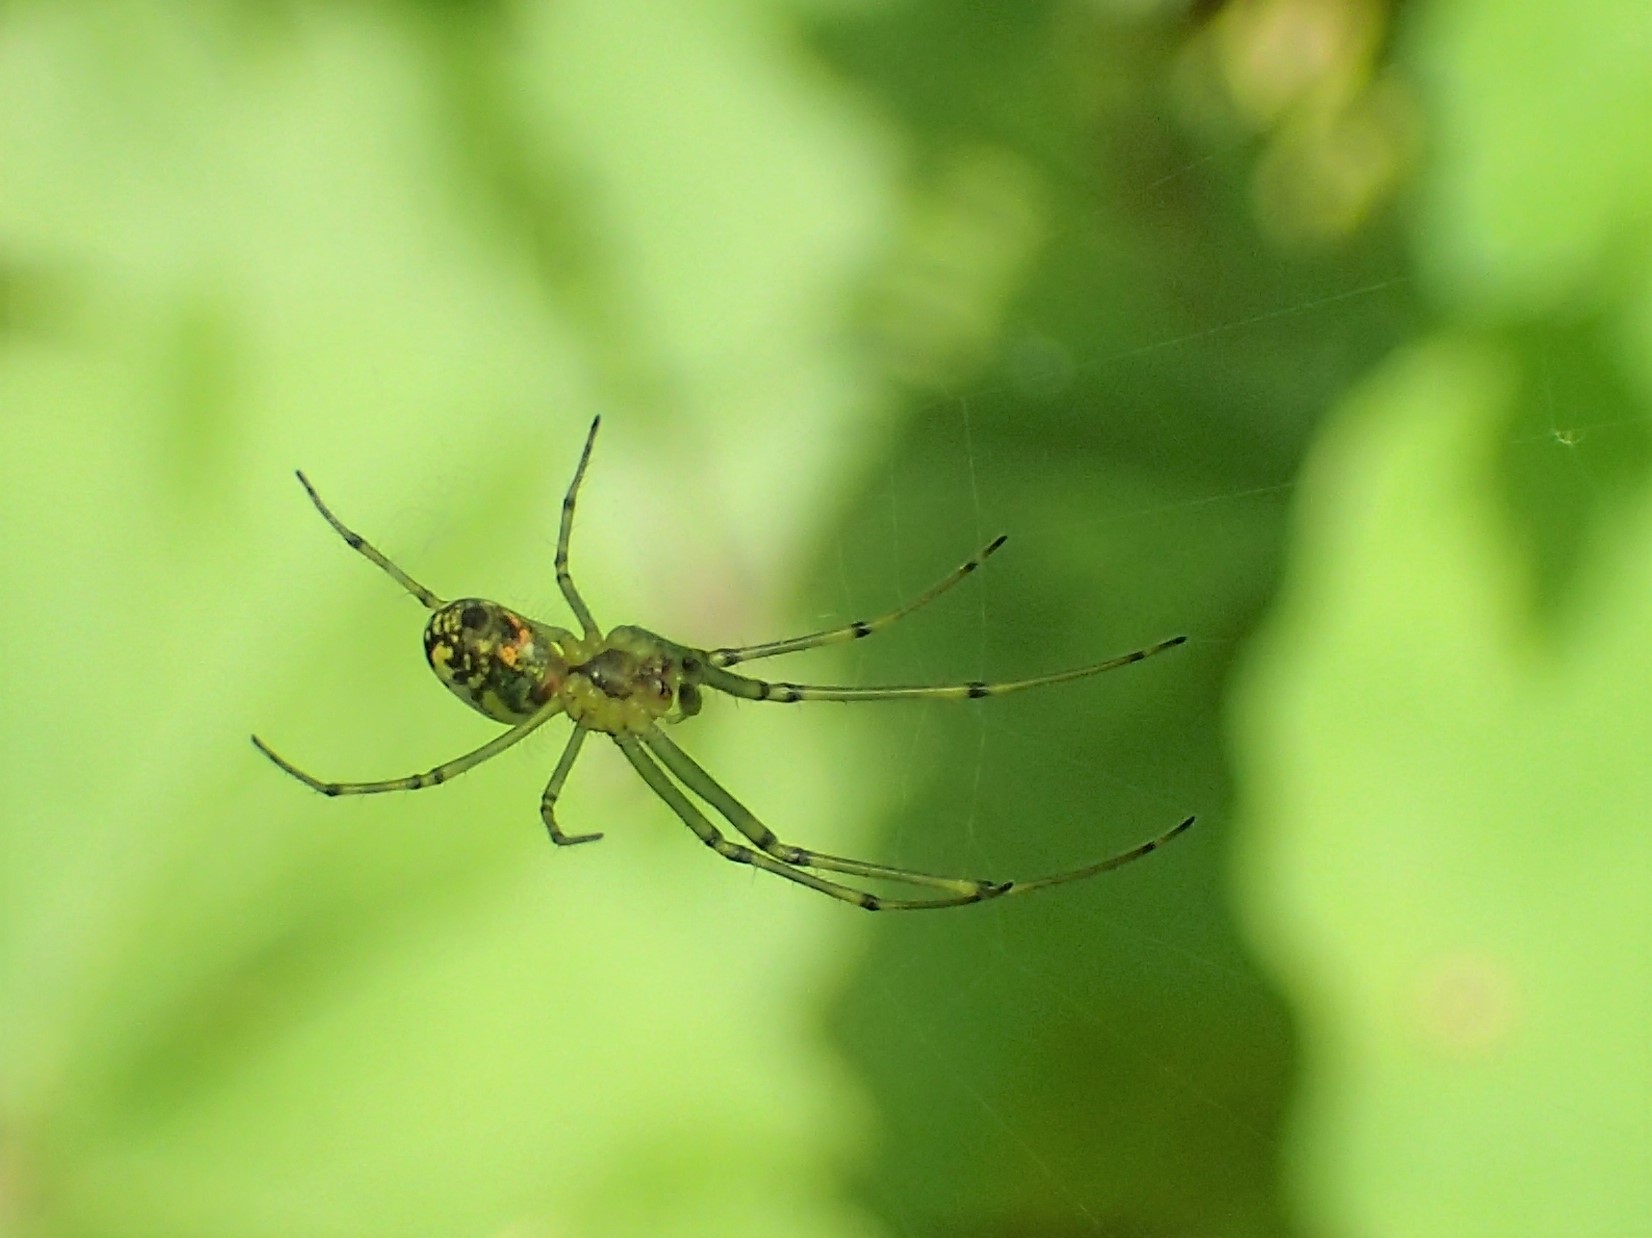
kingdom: Animalia
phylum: Arthropoda
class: Arachnida
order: Araneae
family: Tetragnathidae
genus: Leucauge
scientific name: Leucauge venusta
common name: Longjawed orb weavers
